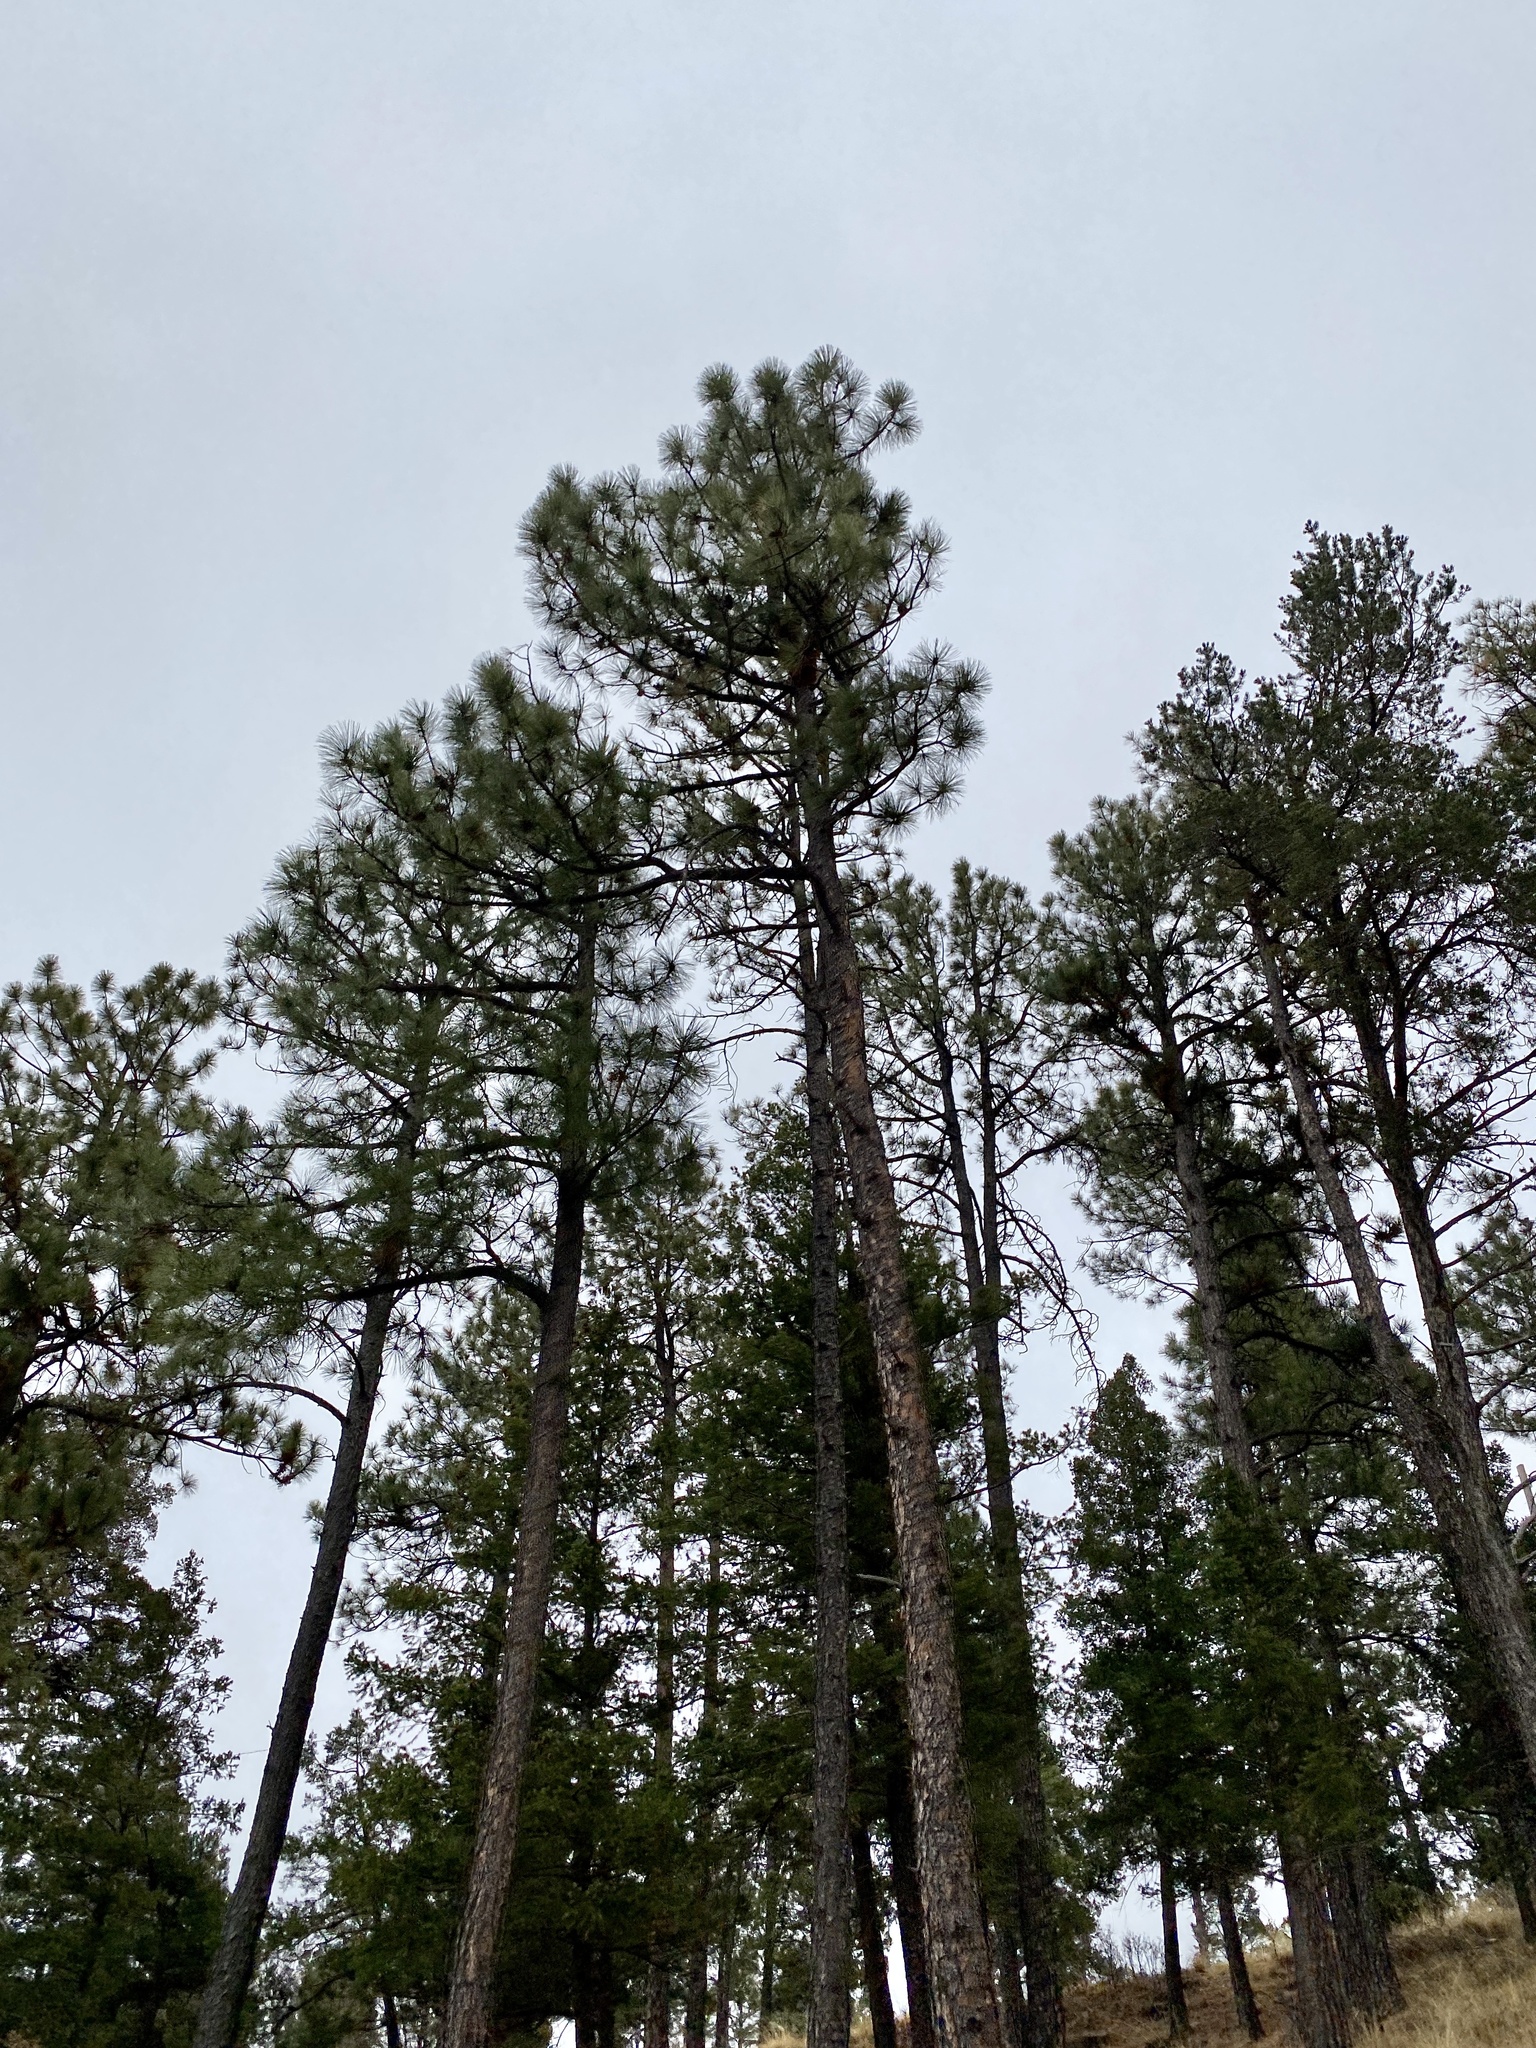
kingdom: Plantae
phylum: Tracheophyta
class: Pinopsida
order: Pinales
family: Pinaceae
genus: Pinus
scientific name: Pinus ponderosa
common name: Western yellow-pine
